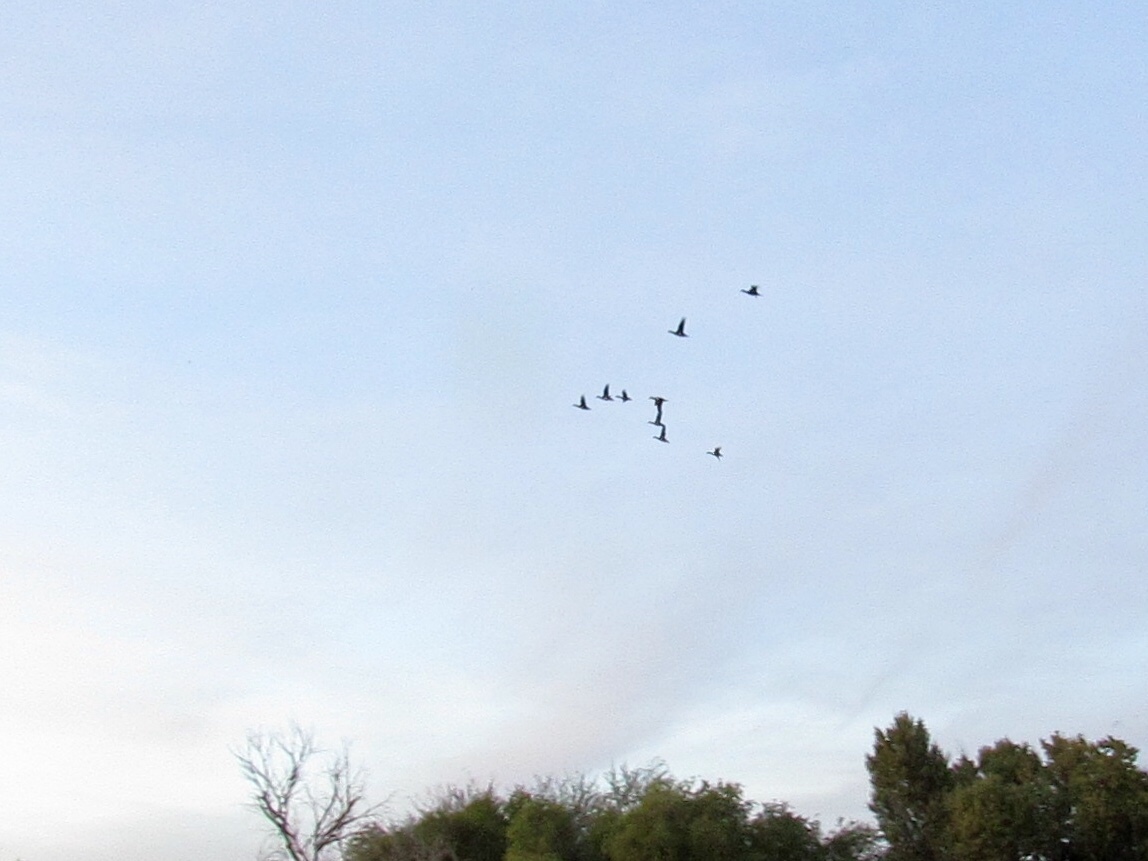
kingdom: Animalia
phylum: Chordata
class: Aves
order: Anseriformes
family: Anatidae
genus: Anas
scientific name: Anas platyrhynchos
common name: Mallard
